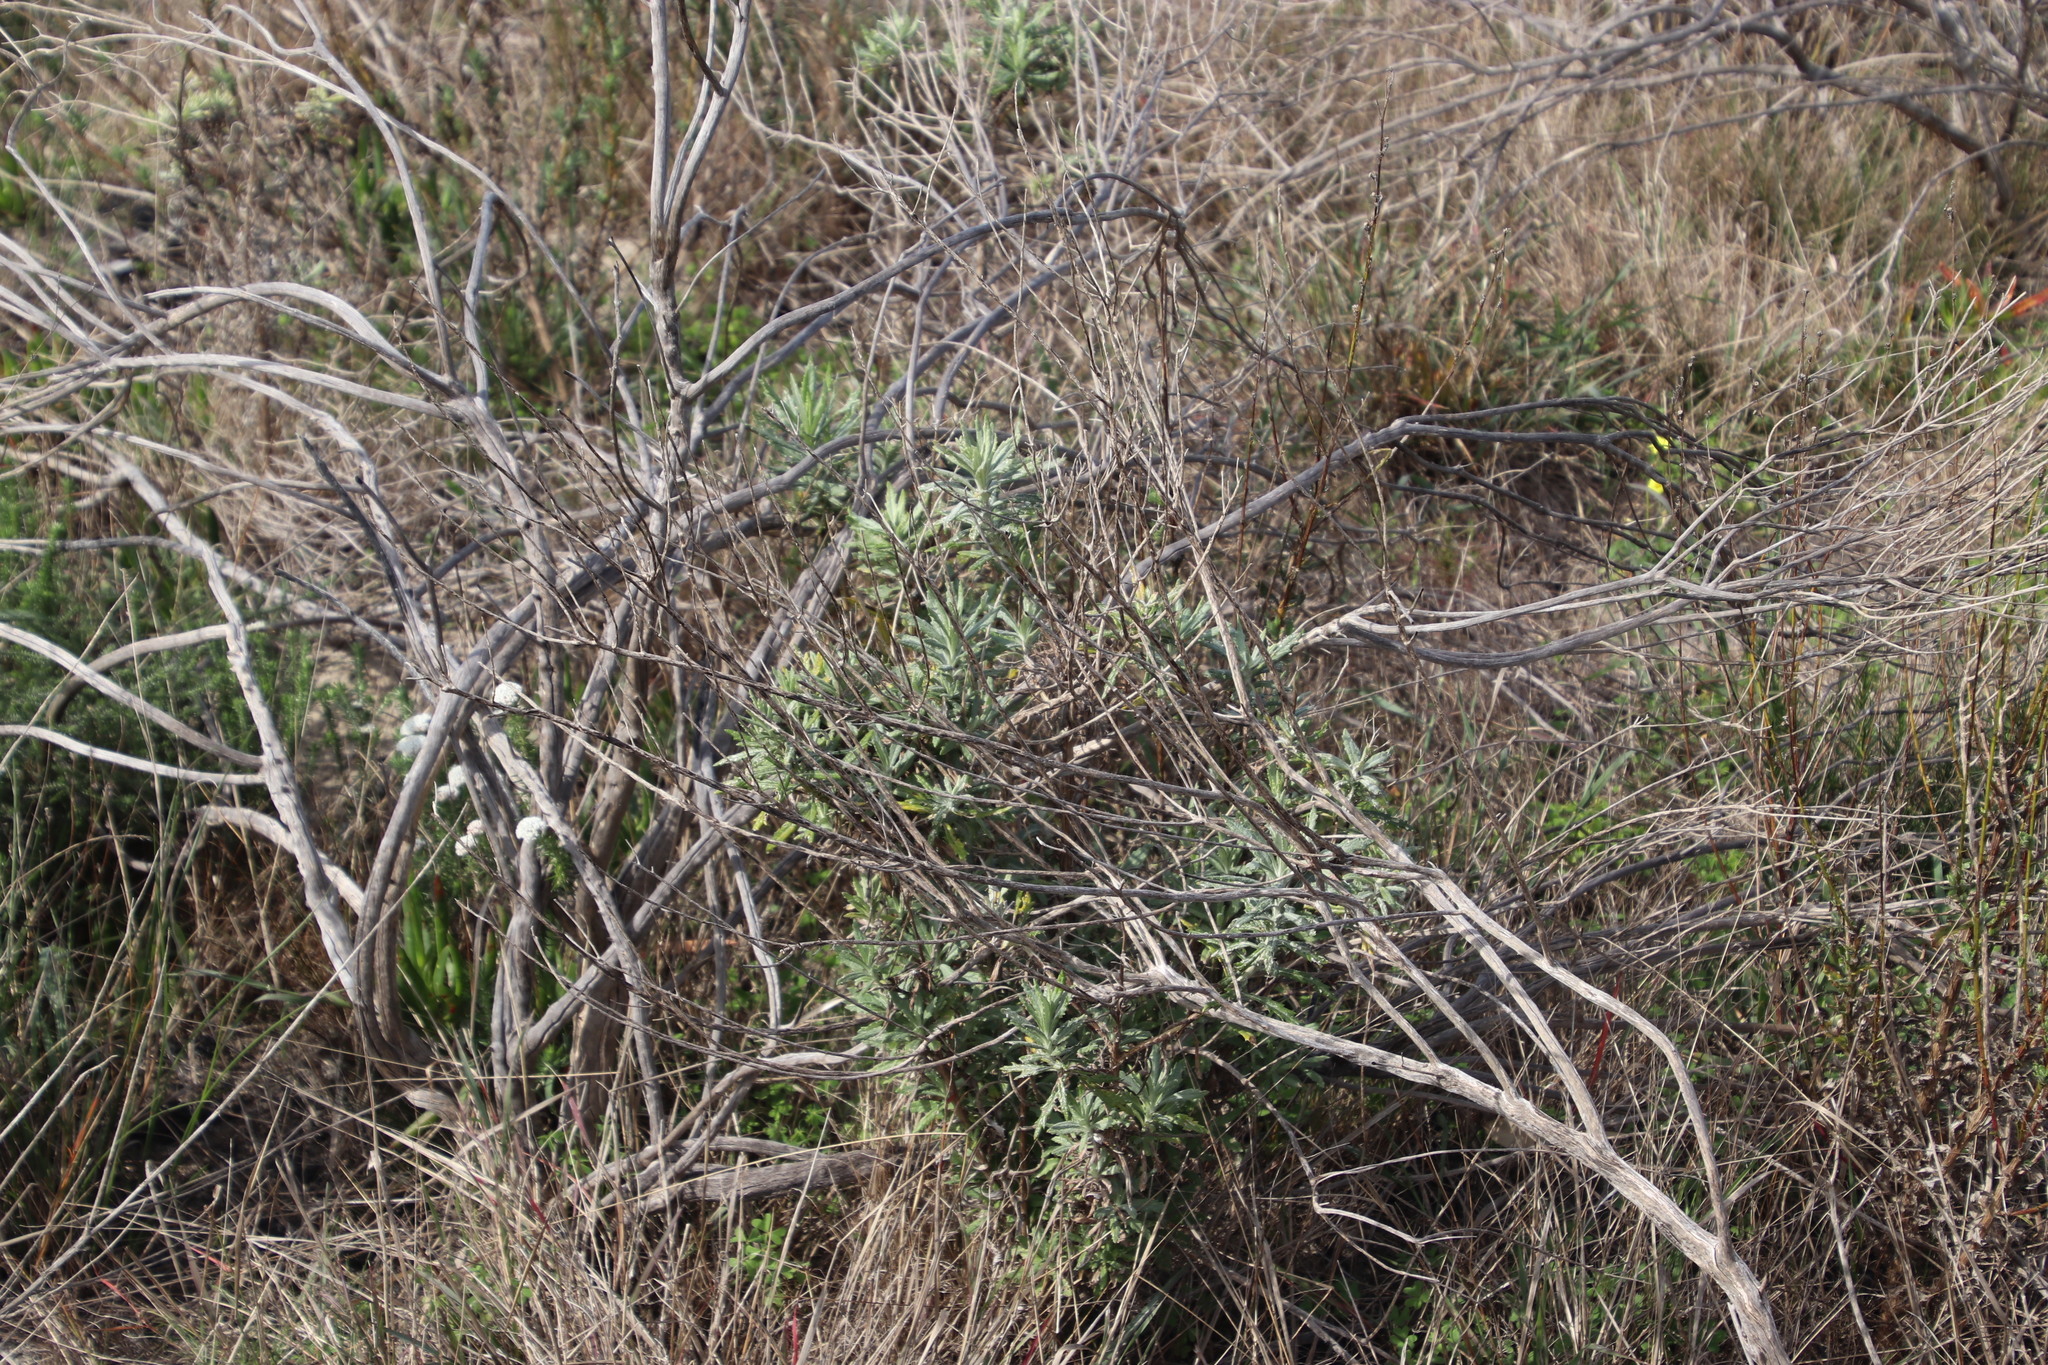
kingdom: Plantae
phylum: Tracheophyta
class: Magnoliopsida
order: Asterales
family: Asteraceae
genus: Senecio
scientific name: Senecio pterophorus
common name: Shoddy ragwort
